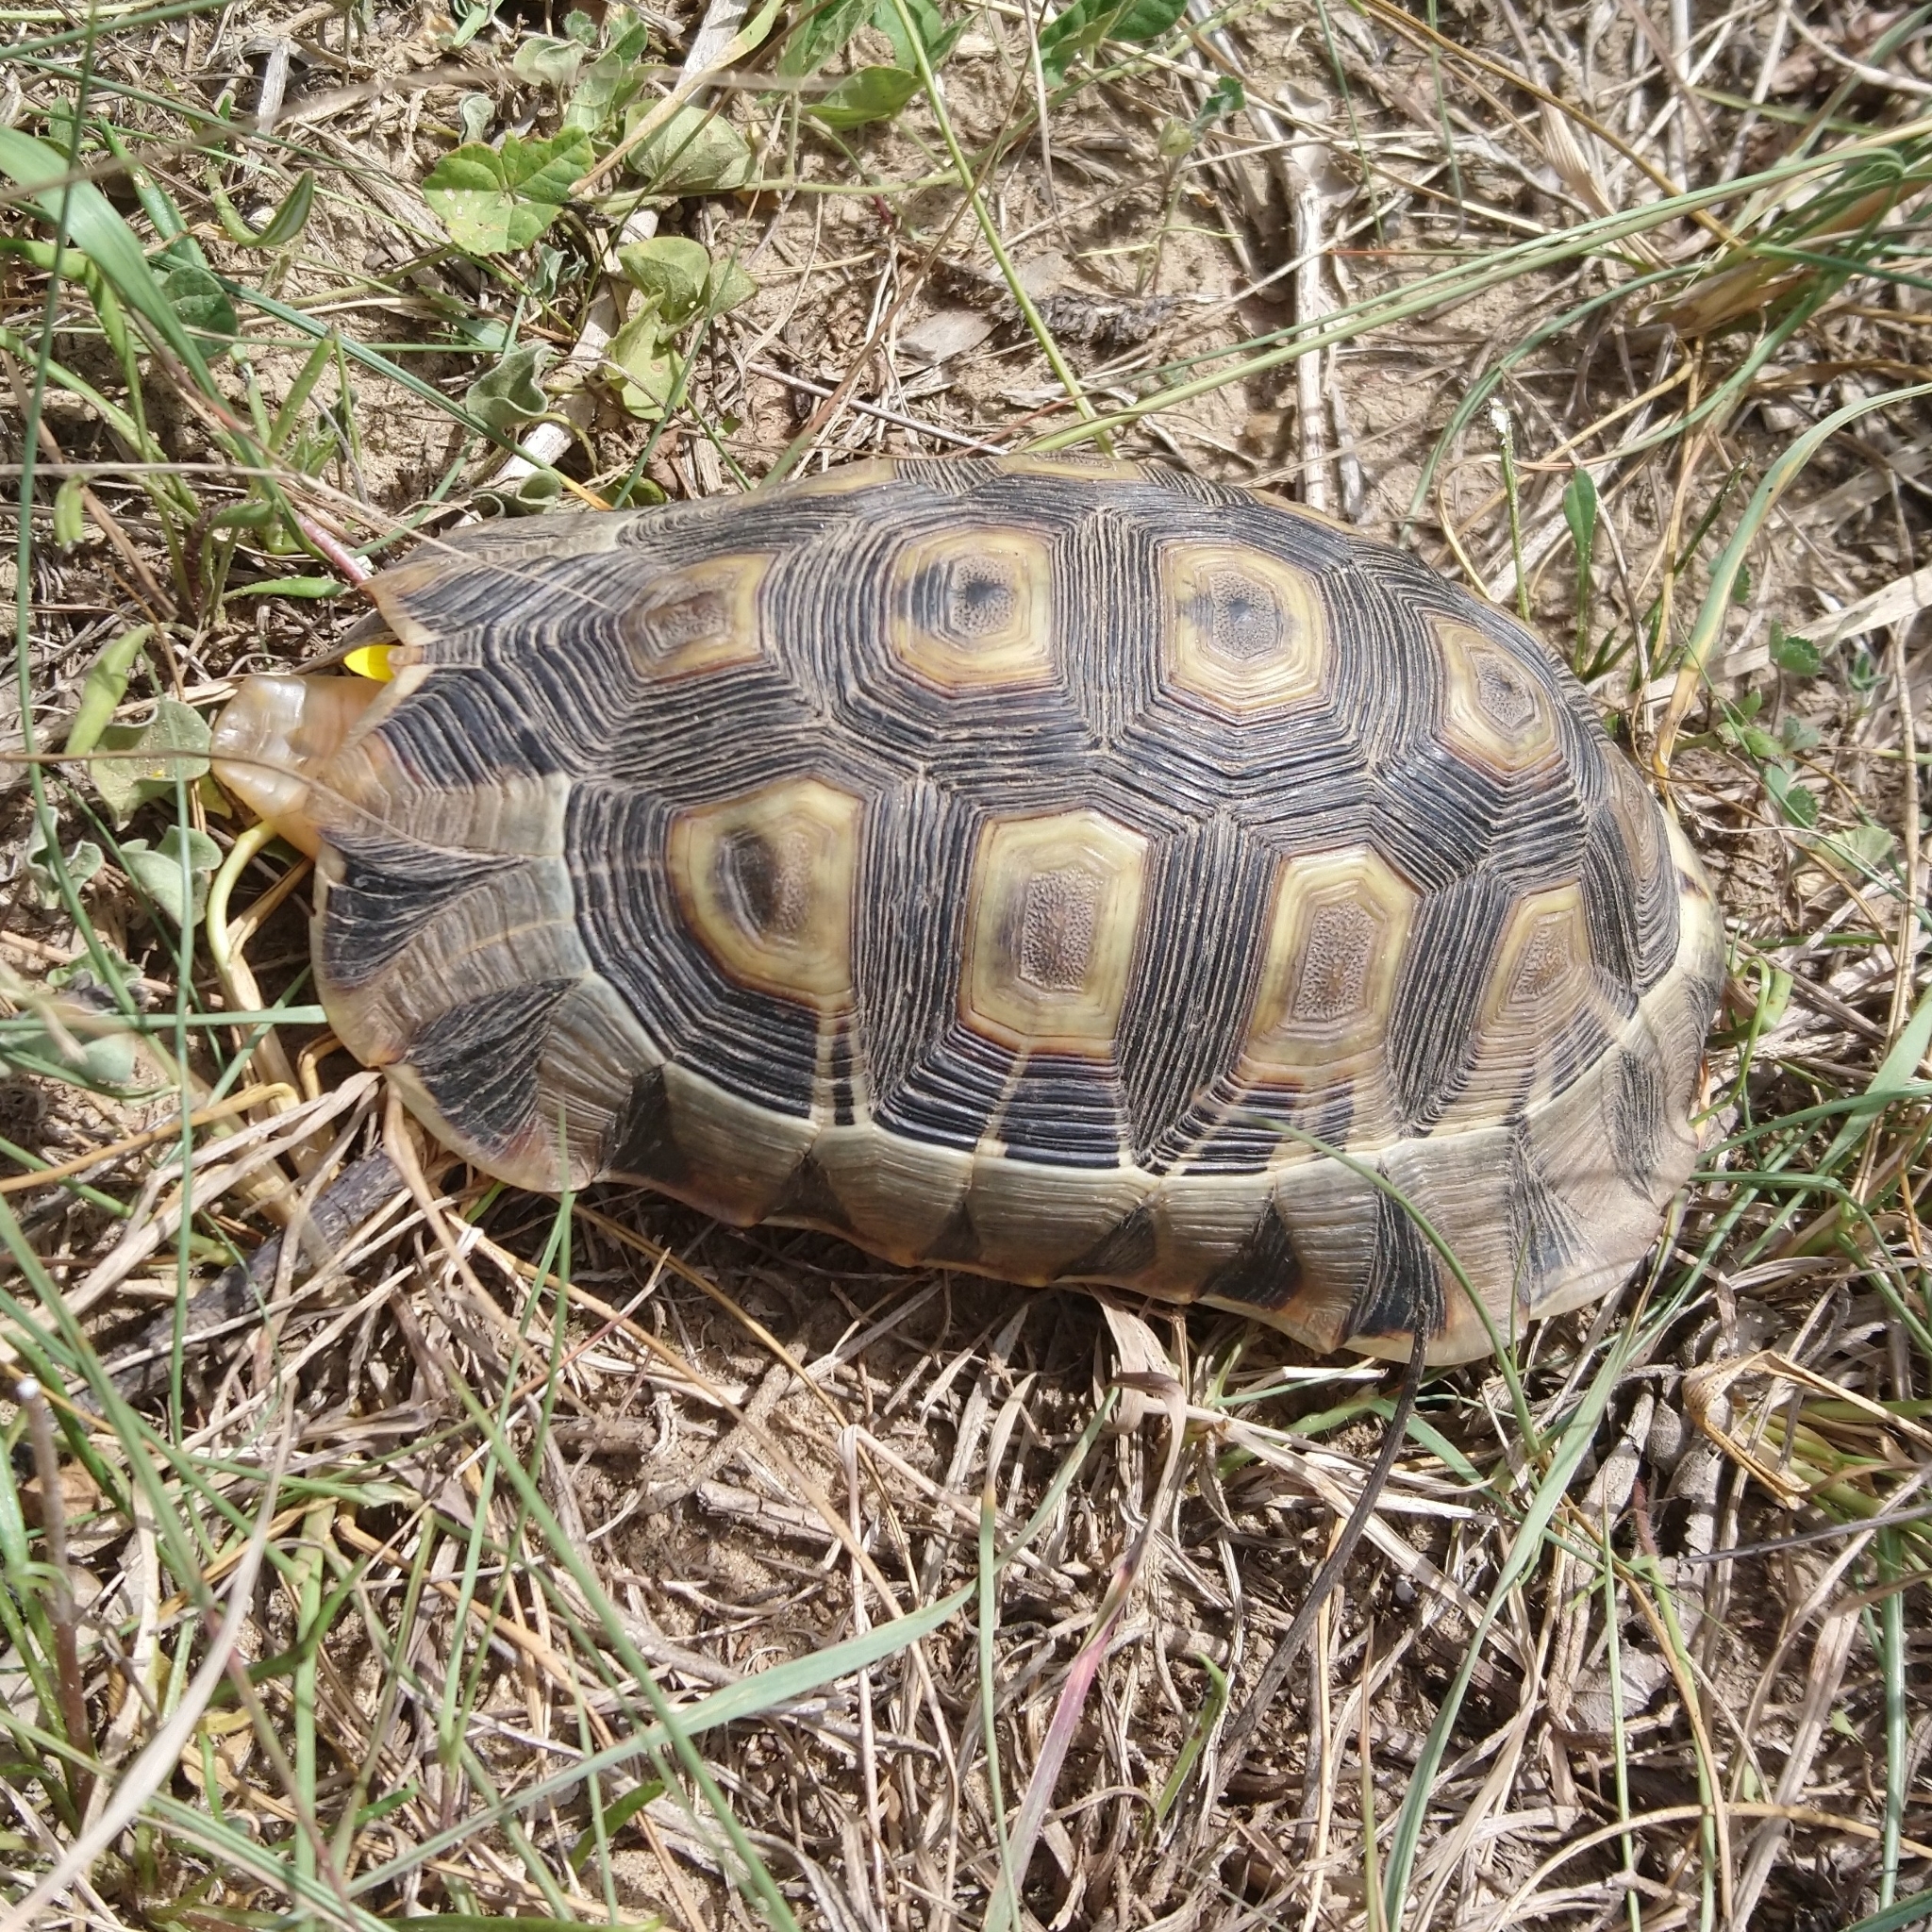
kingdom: Animalia
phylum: Chordata
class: Testudines
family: Testudinidae
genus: Chersina
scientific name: Chersina angulata
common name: South african bowsprit tortoise
